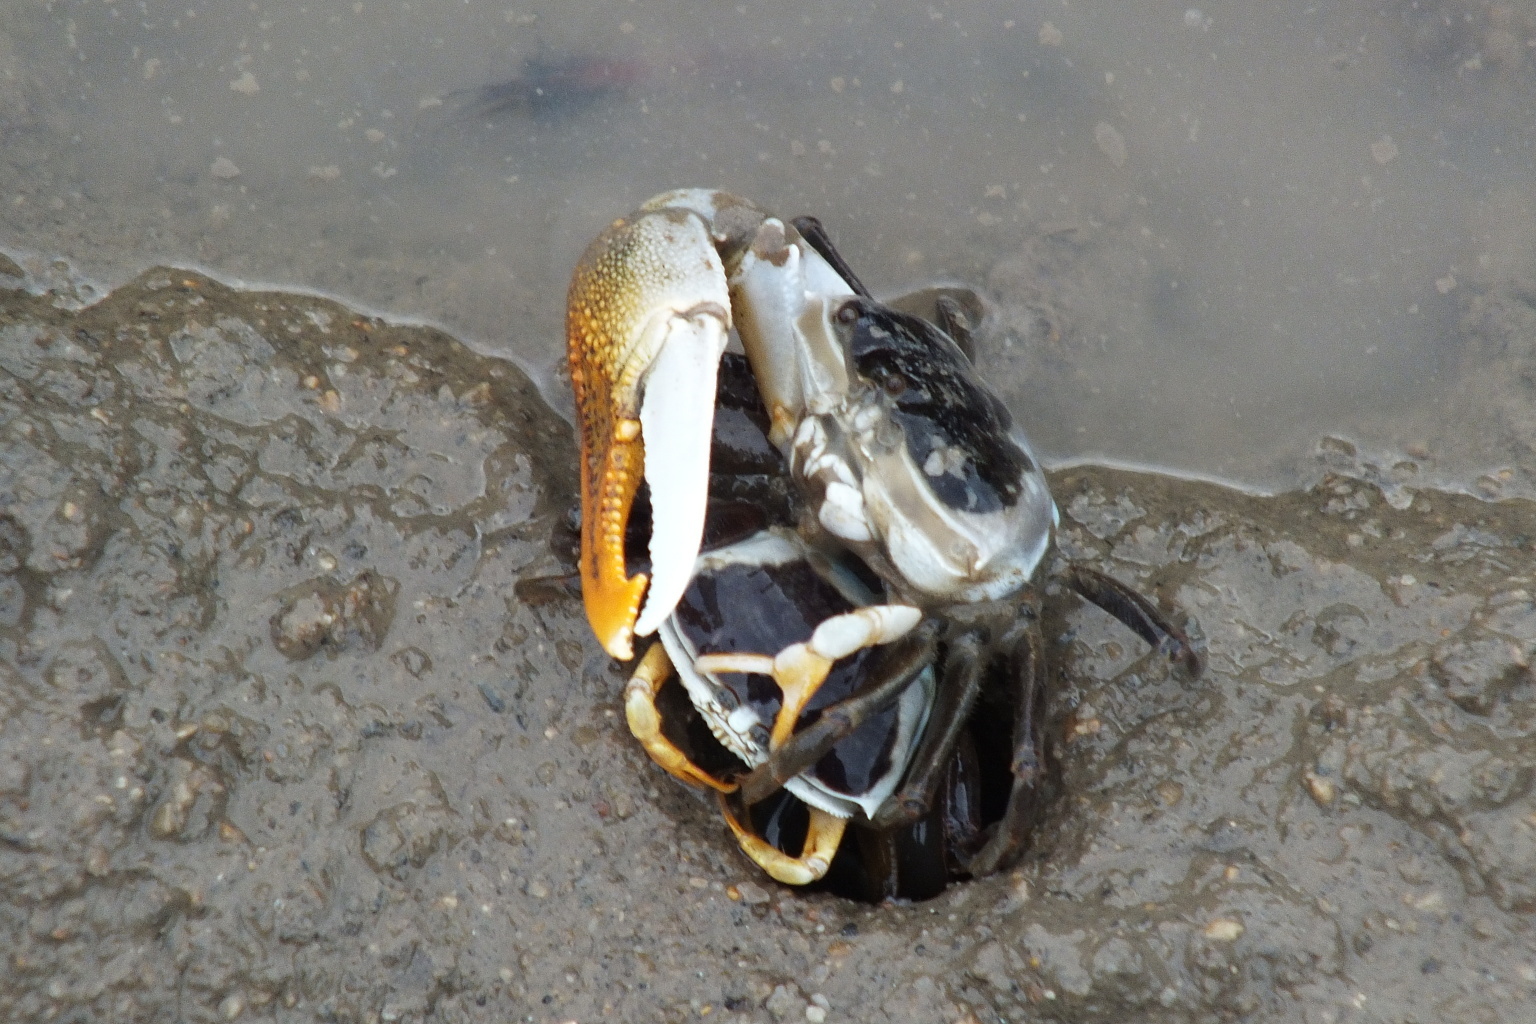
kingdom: Animalia
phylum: Arthropoda
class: Malacostraca
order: Decapoda
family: Ocypodidae
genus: Gelasimus
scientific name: Gelasimus vomeris
